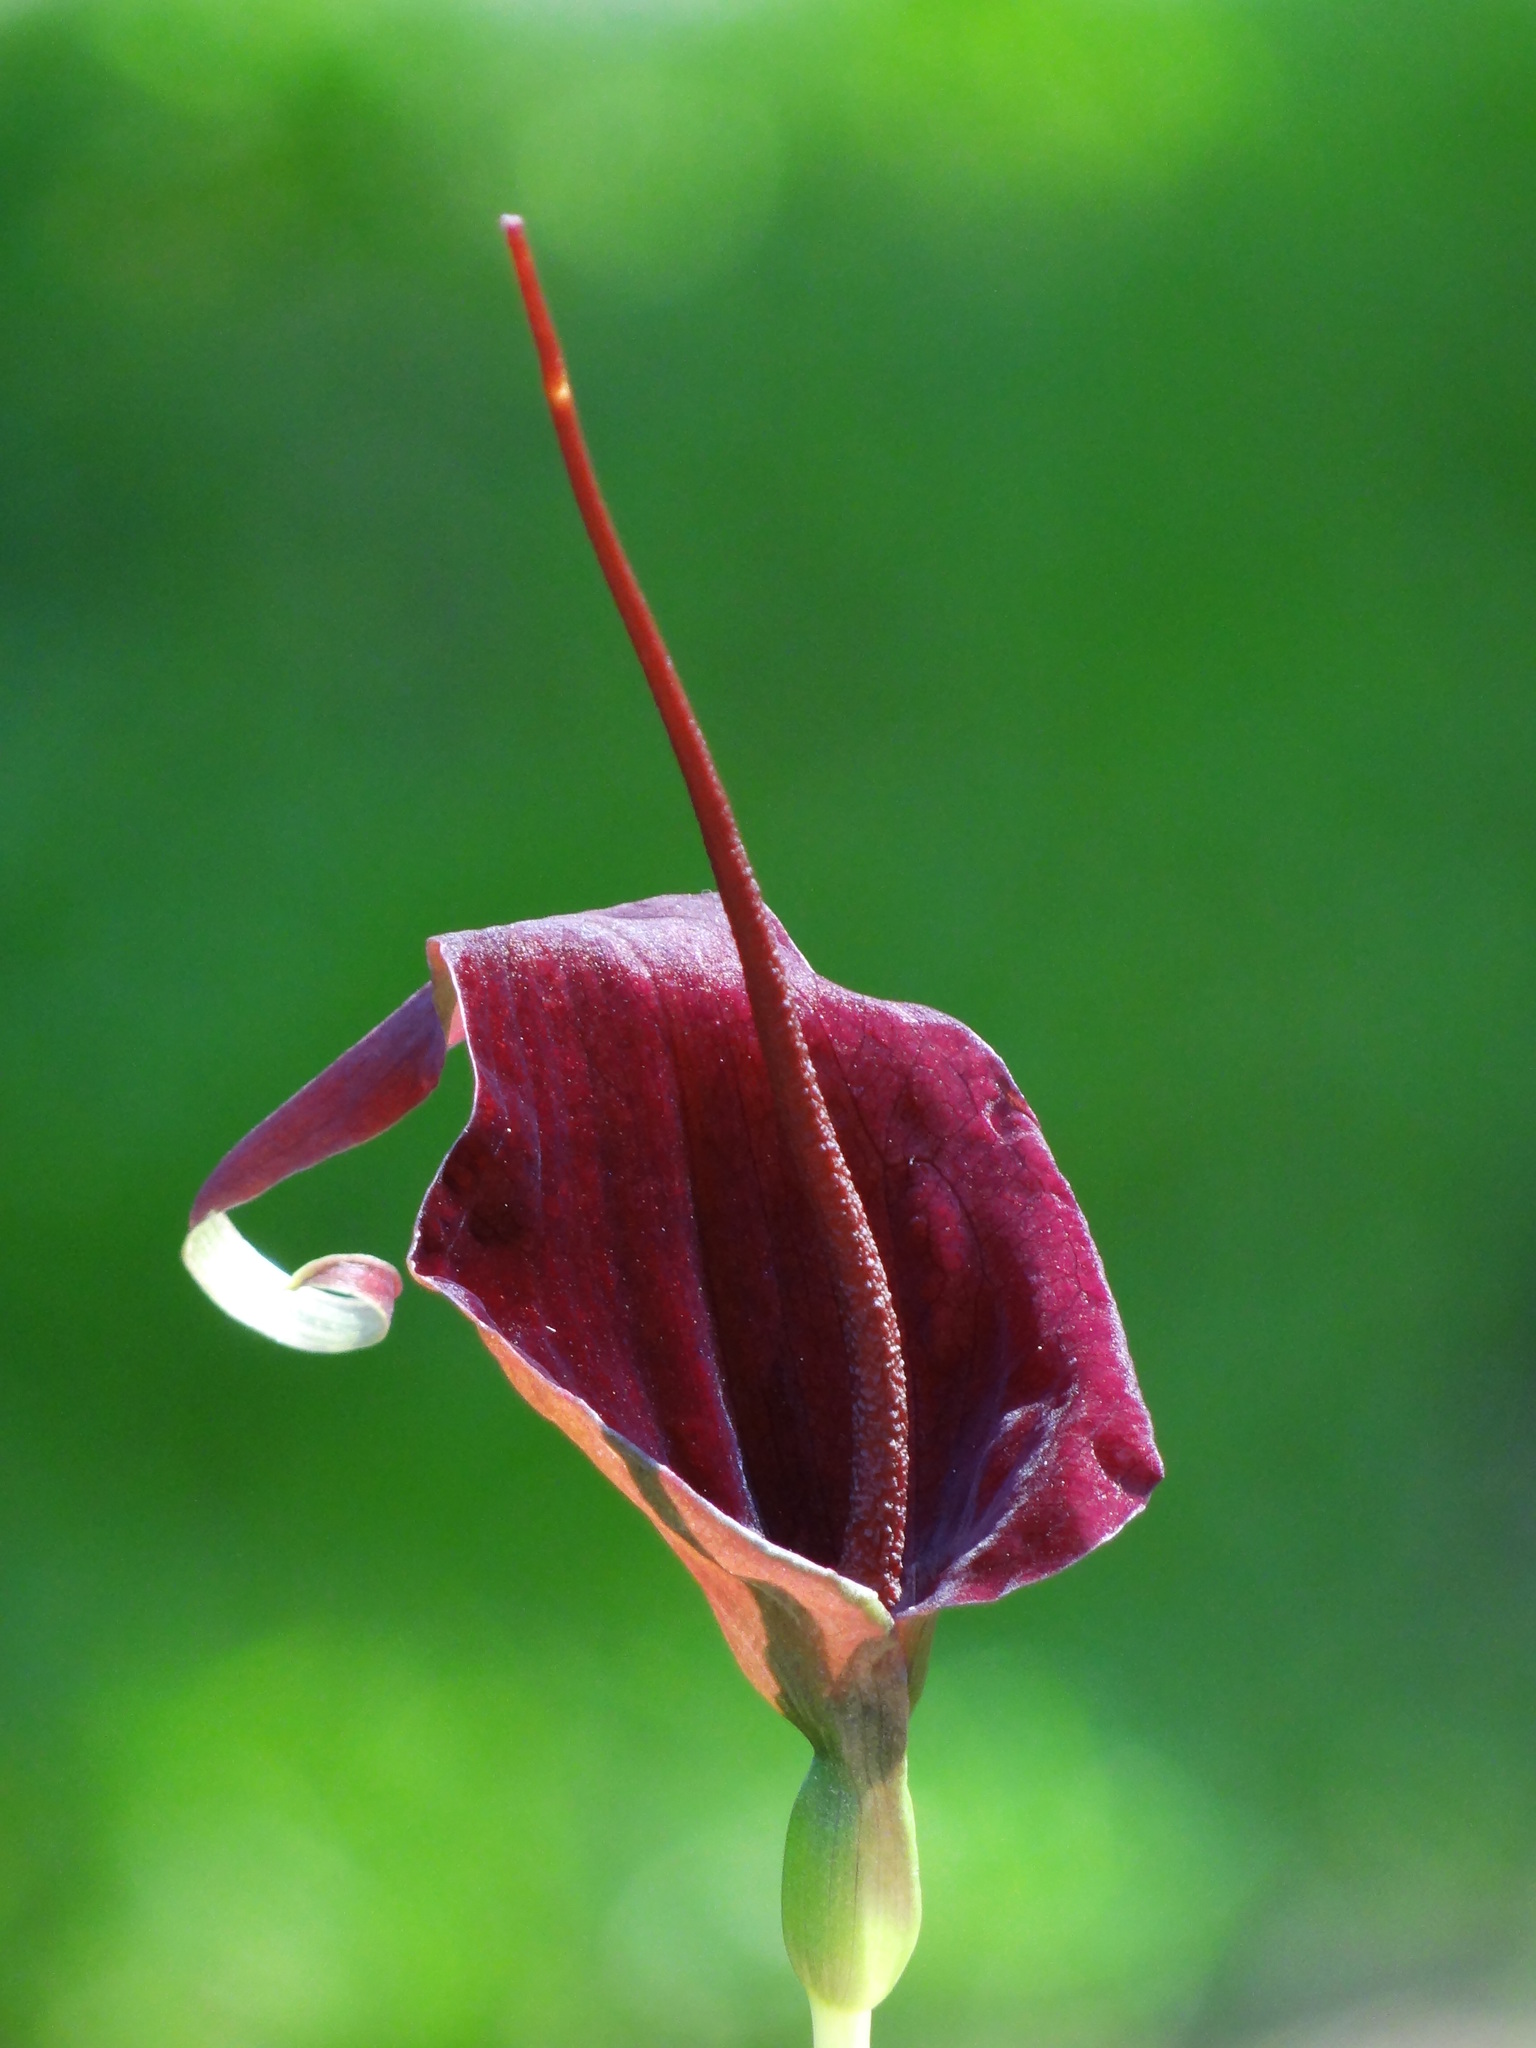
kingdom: Plantae
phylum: Tracheophyta
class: Liliopsida
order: Alismatales
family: Araceae
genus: Typhonium
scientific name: Typhonium blumei
